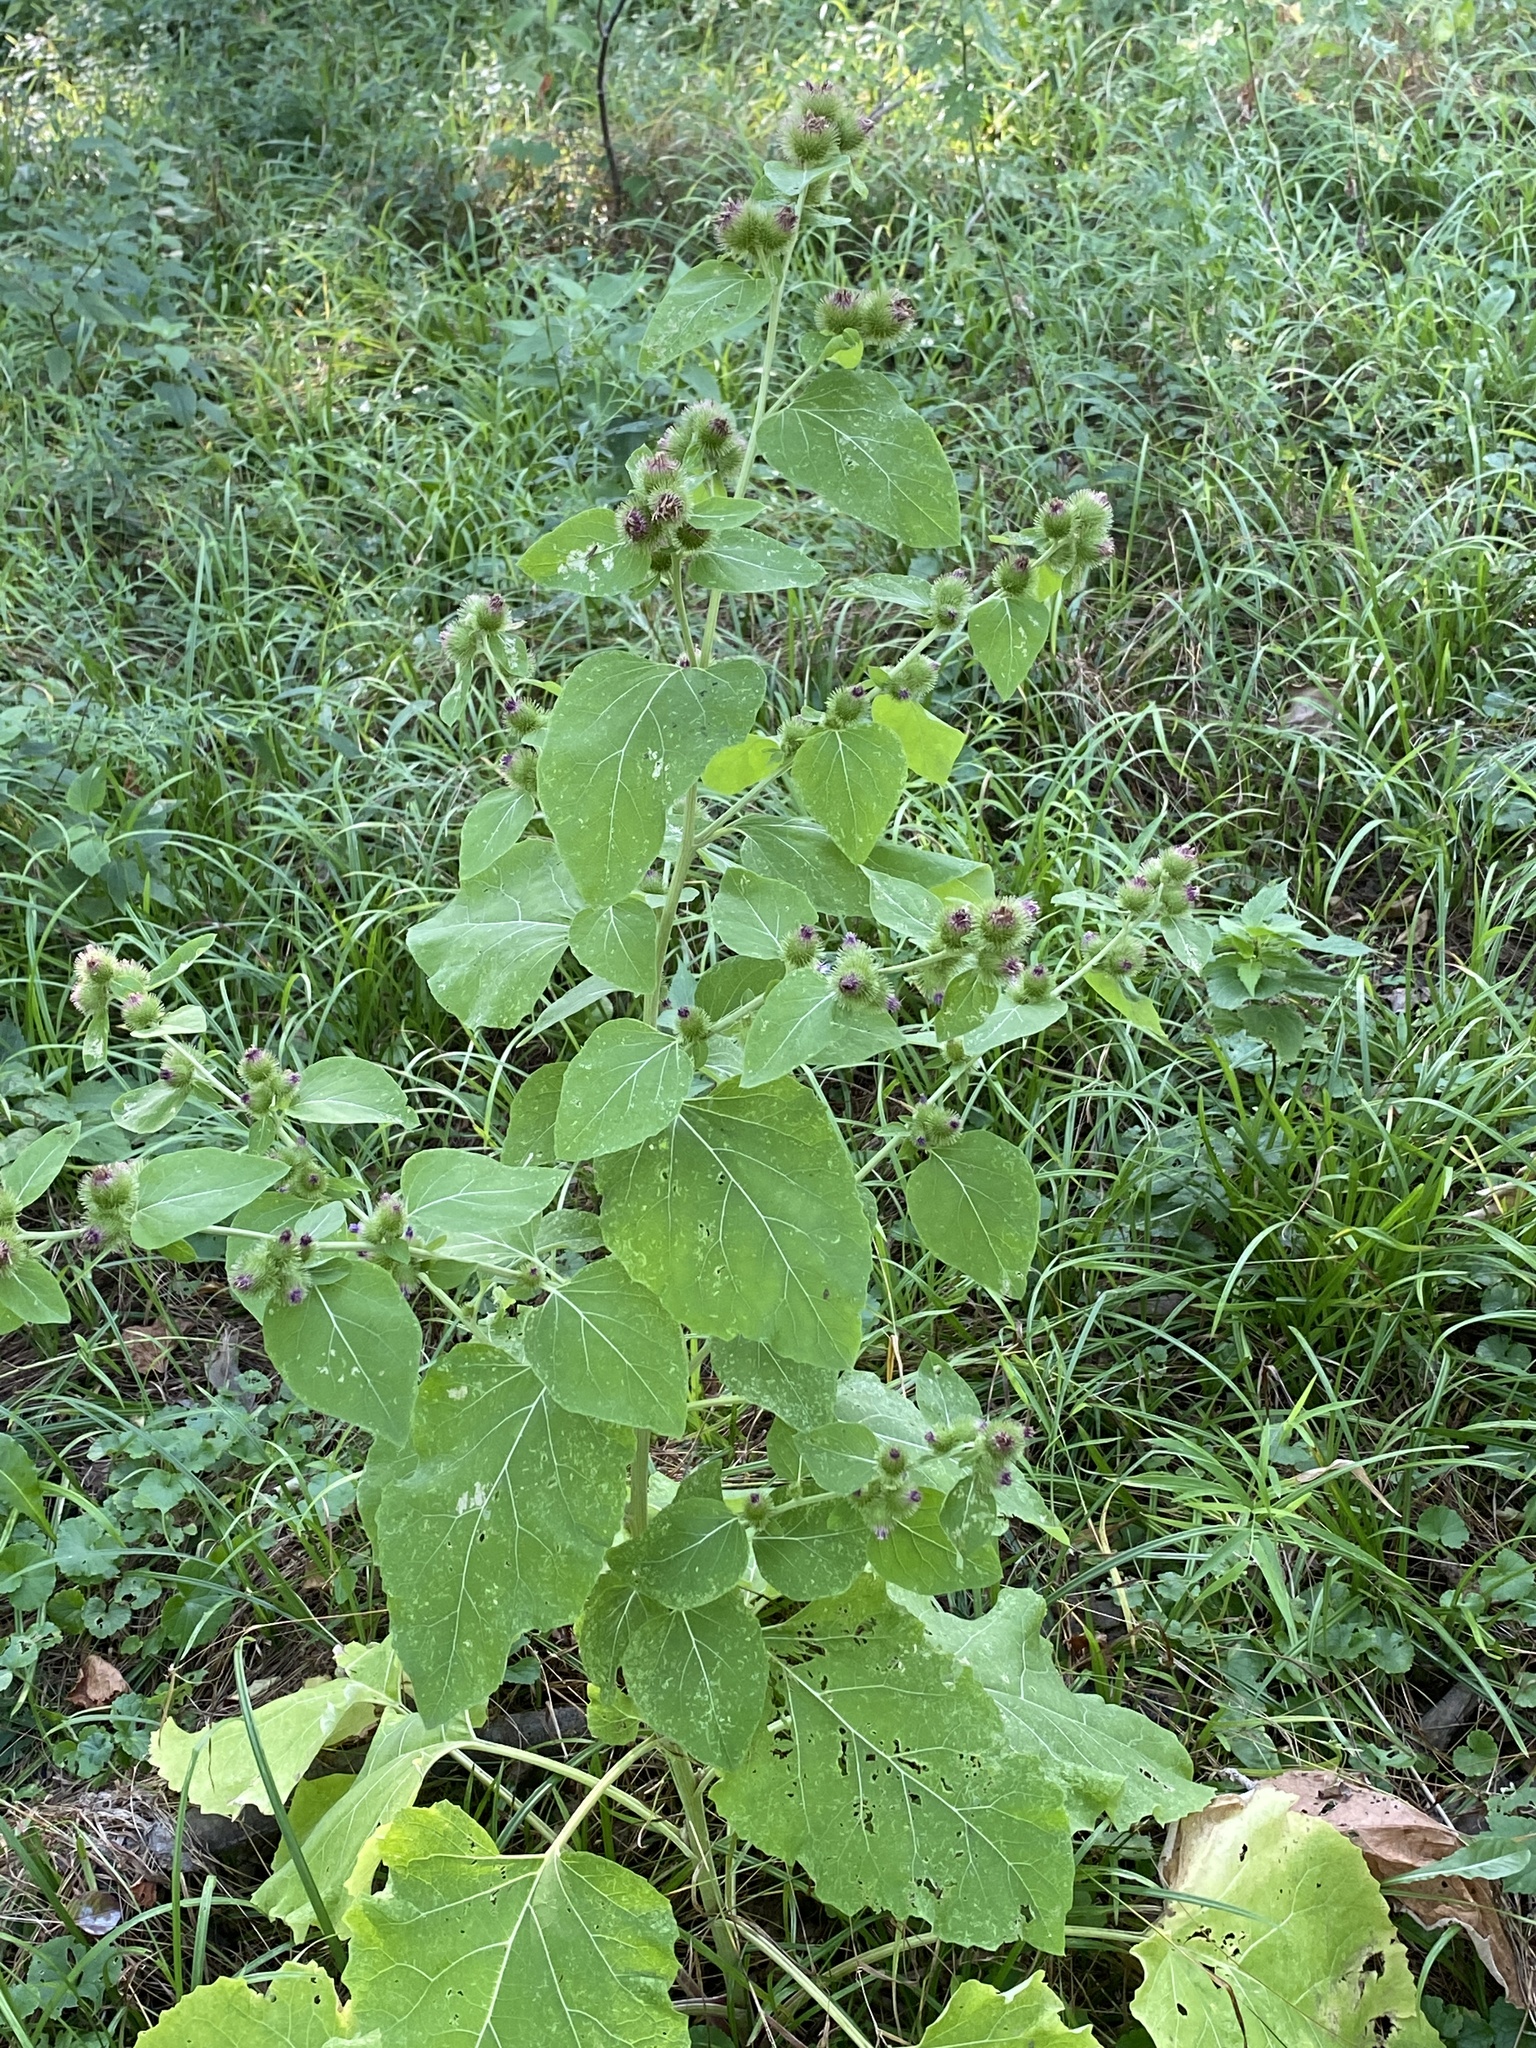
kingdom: Plantae
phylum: Tracheophyta
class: Magnoliopsida
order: Asterales
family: Asteraceae
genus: Arctium
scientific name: Arctium minus
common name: Lesser burdock
